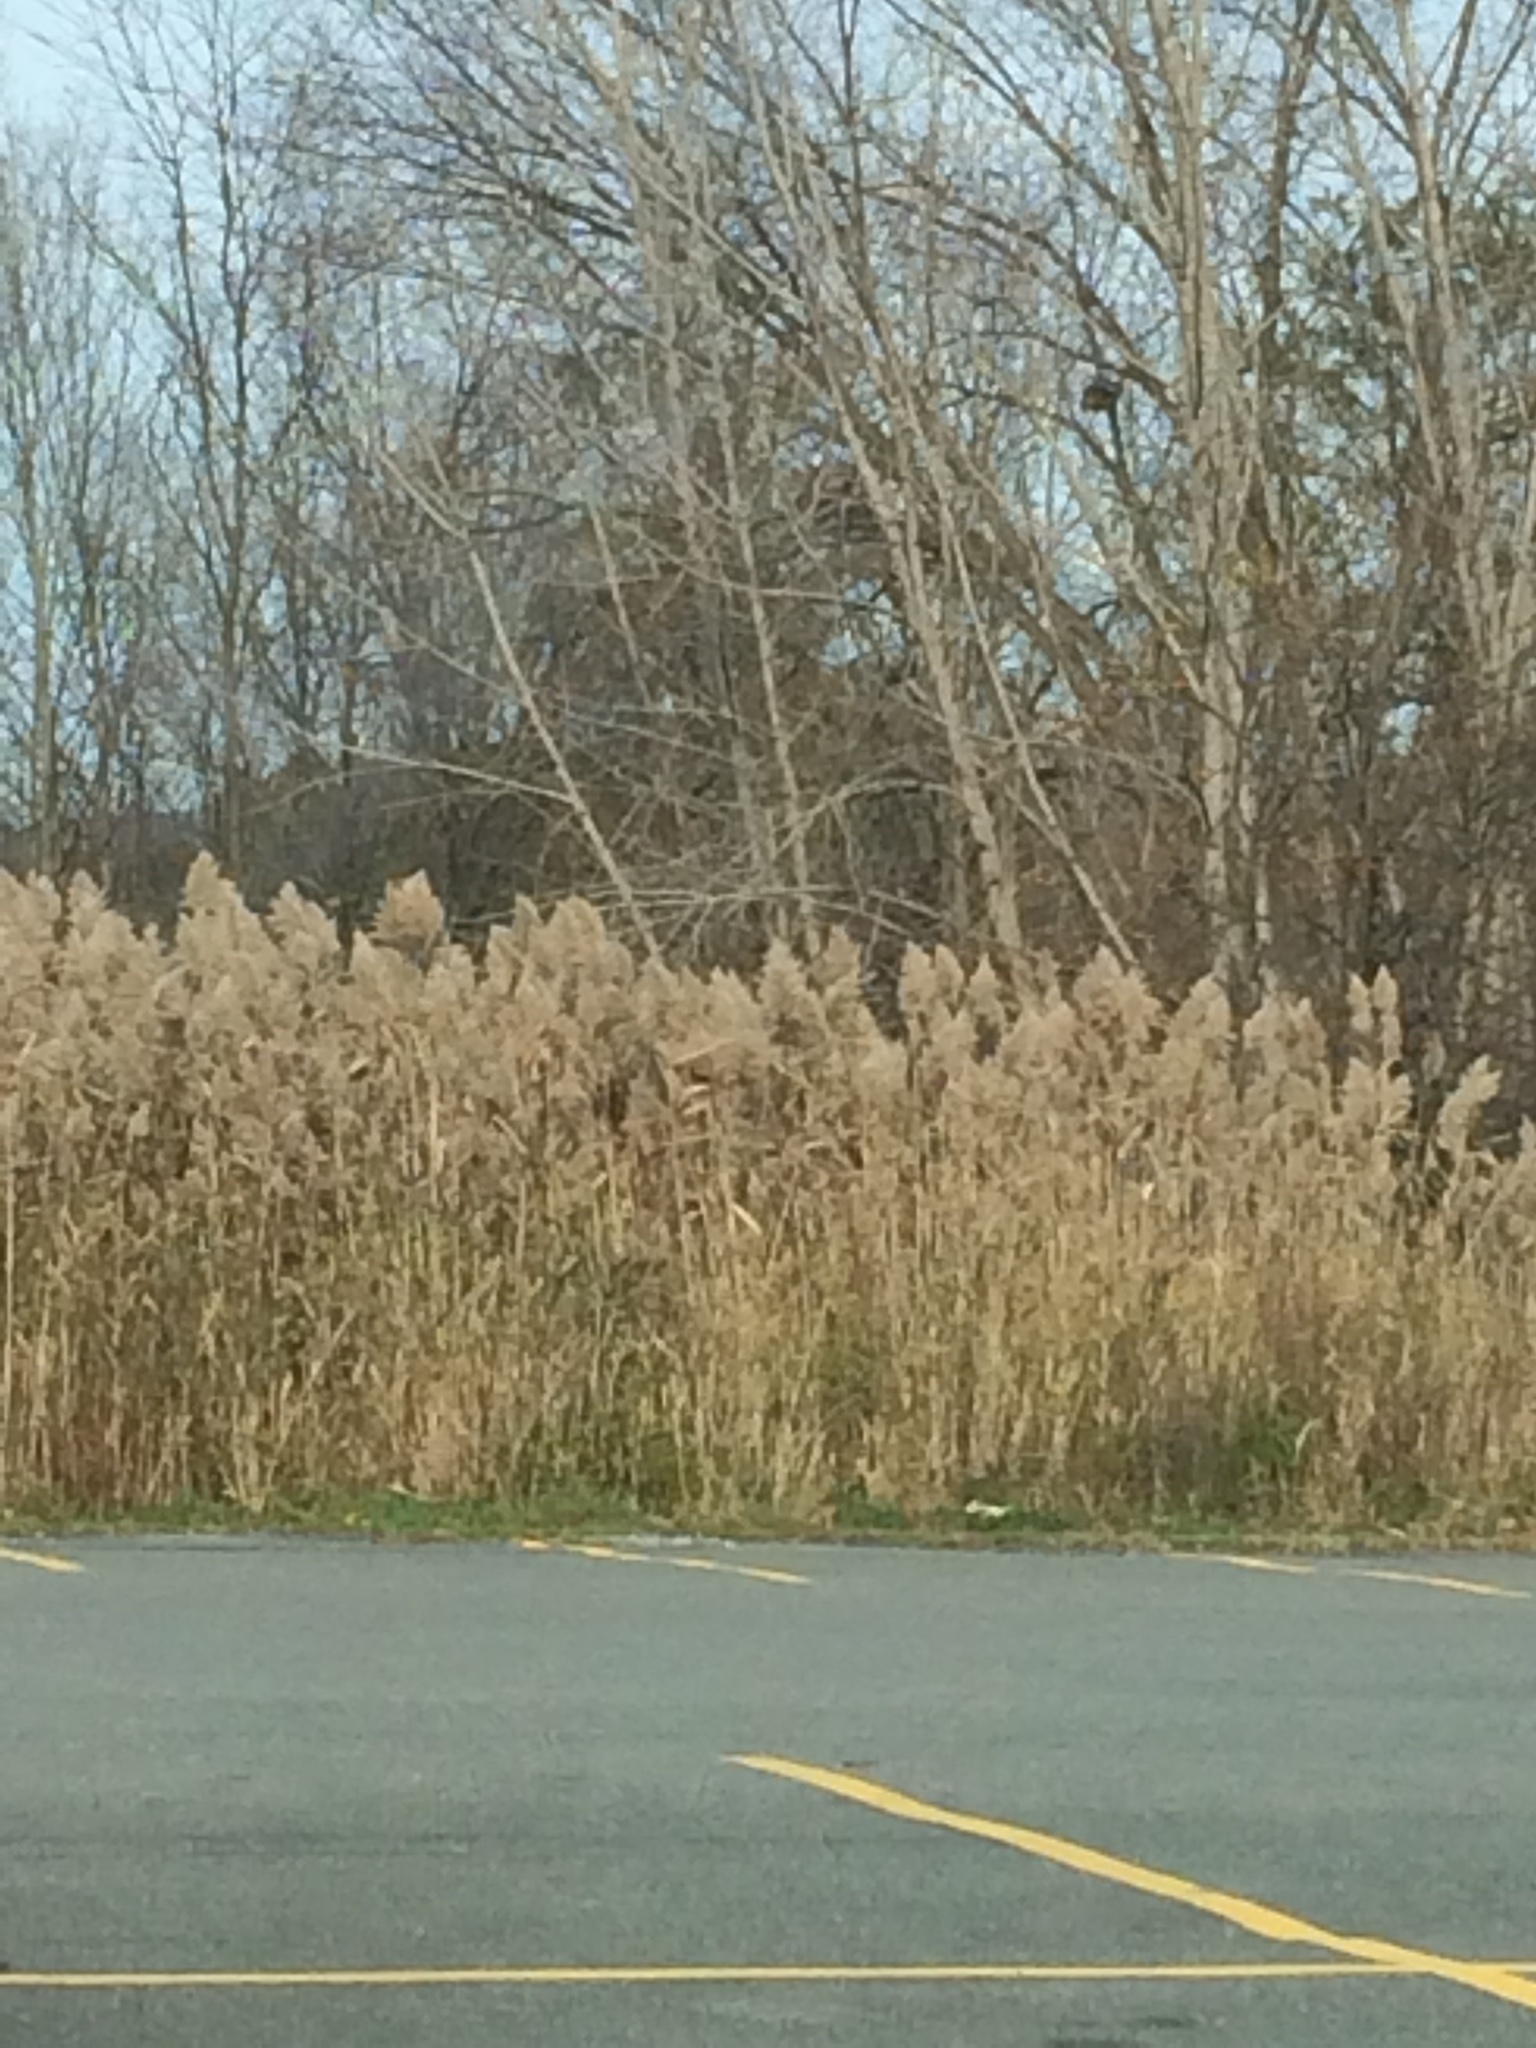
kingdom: Plantae
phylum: Tracheophyta
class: Liliopsida
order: Poales
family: Poaceae
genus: Phragmites
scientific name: Phragmites australis
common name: Common reed
